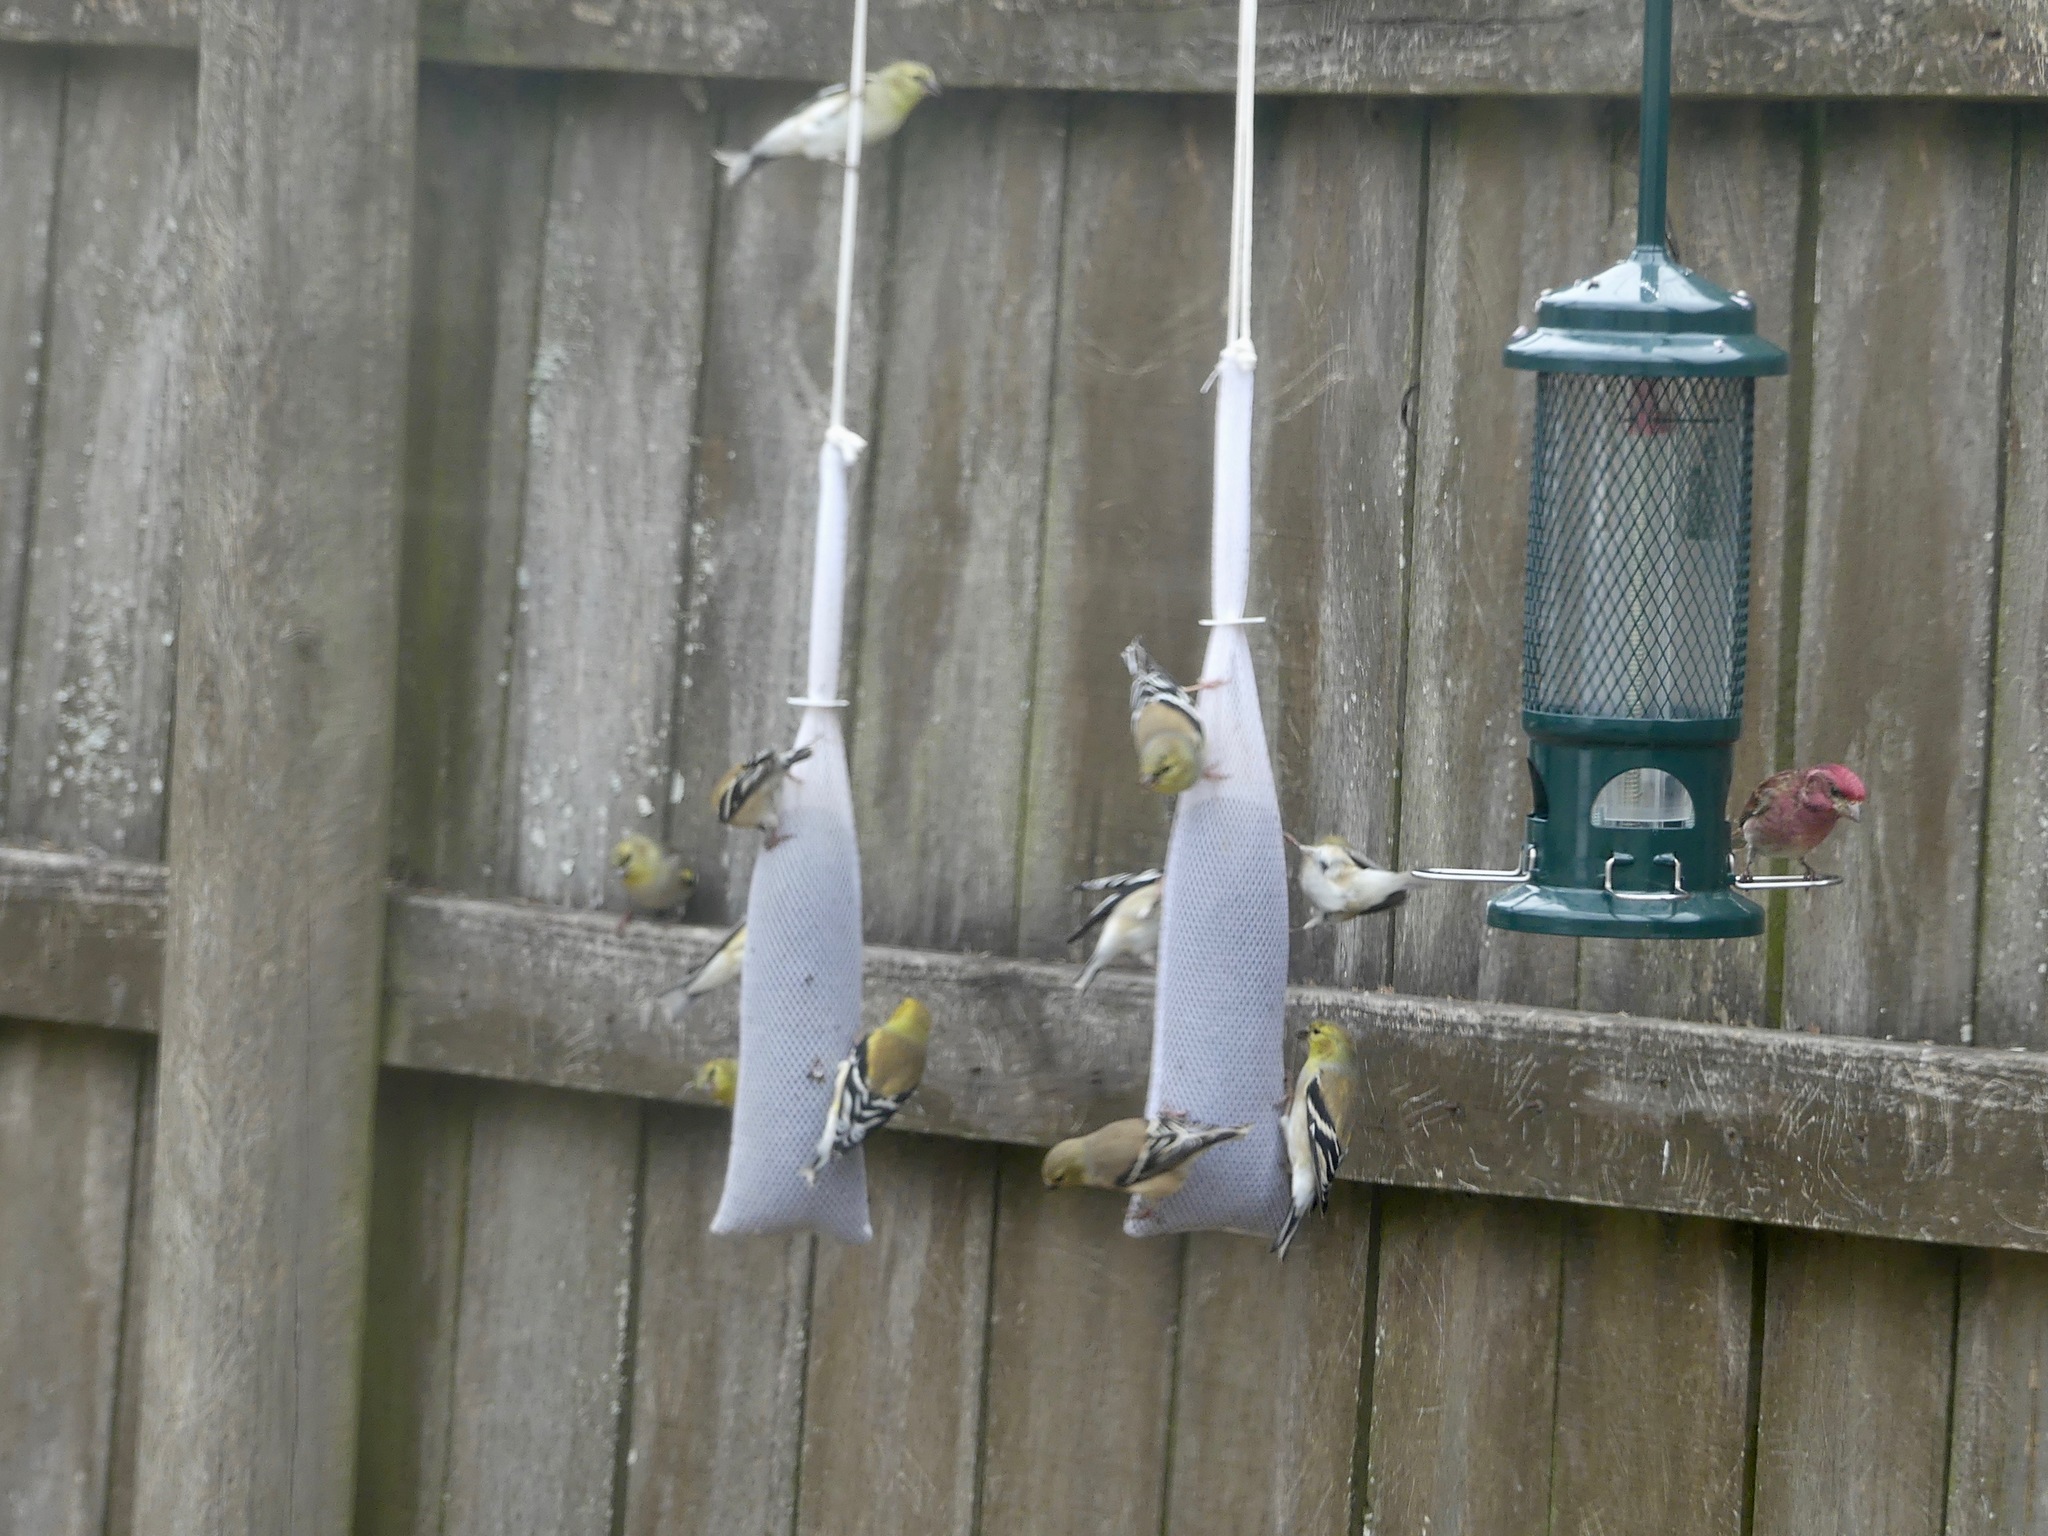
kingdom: Animalia
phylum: Chordata
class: Aves
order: Passeriformes
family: Fringillidae
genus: Spinus
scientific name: Spinus tristis
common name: American goldfinch
